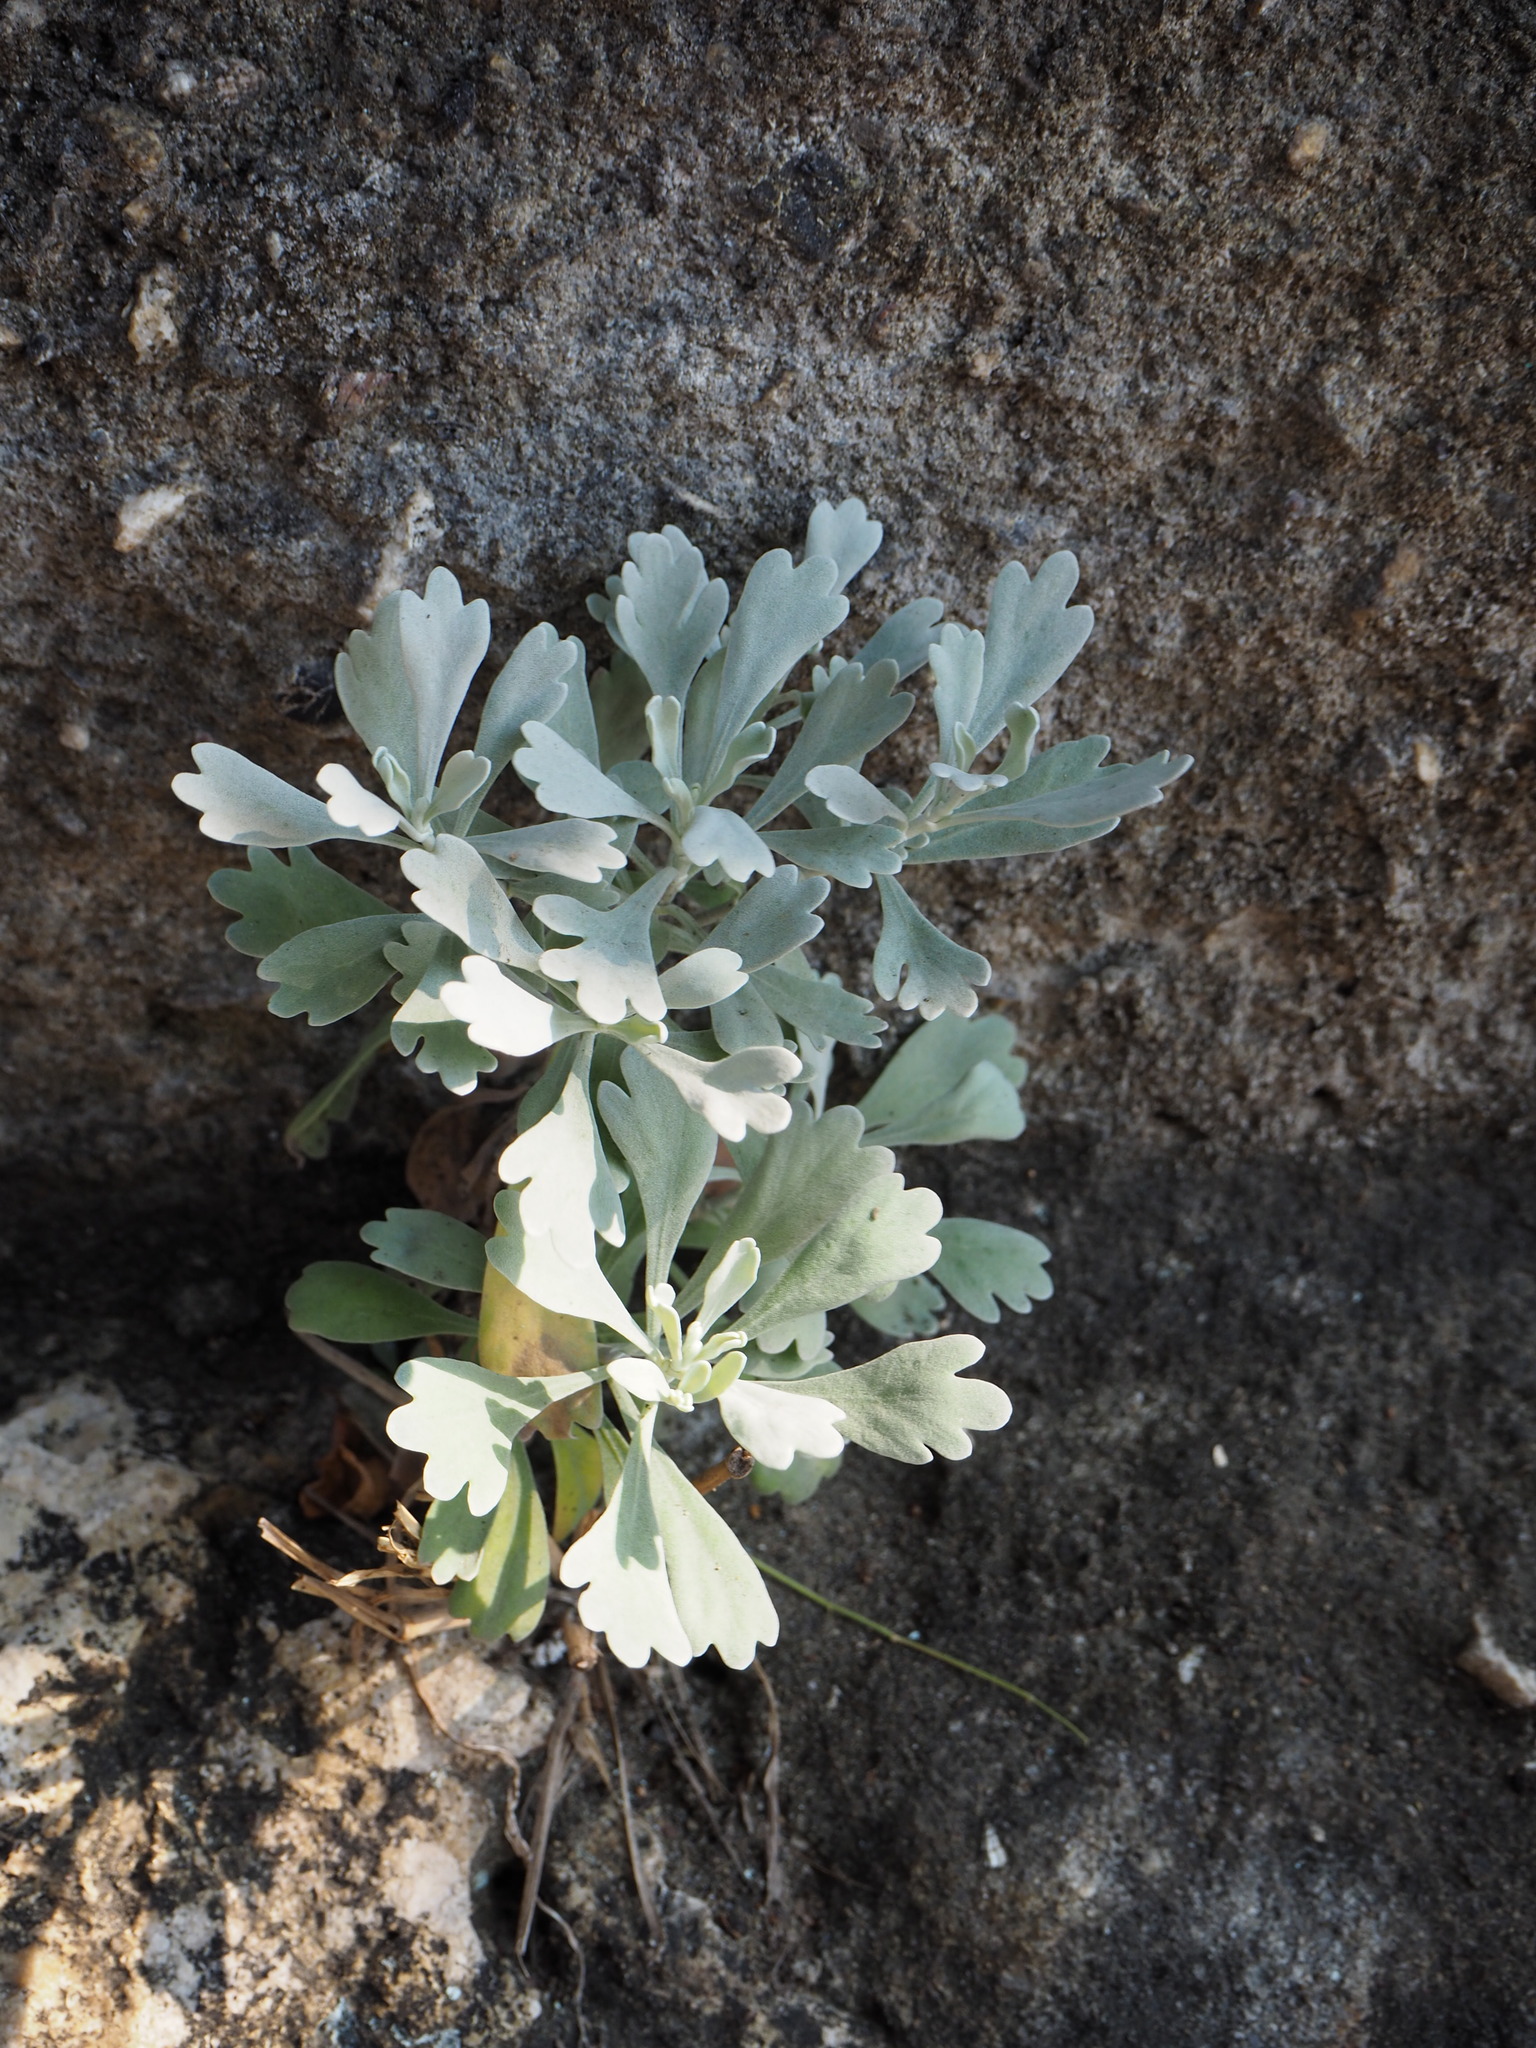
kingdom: Plantae
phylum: Tracheophyta
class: Magnoliopsida
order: Asterales
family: Asteraceae
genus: Crossostephium
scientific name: Crossostephium chinense
